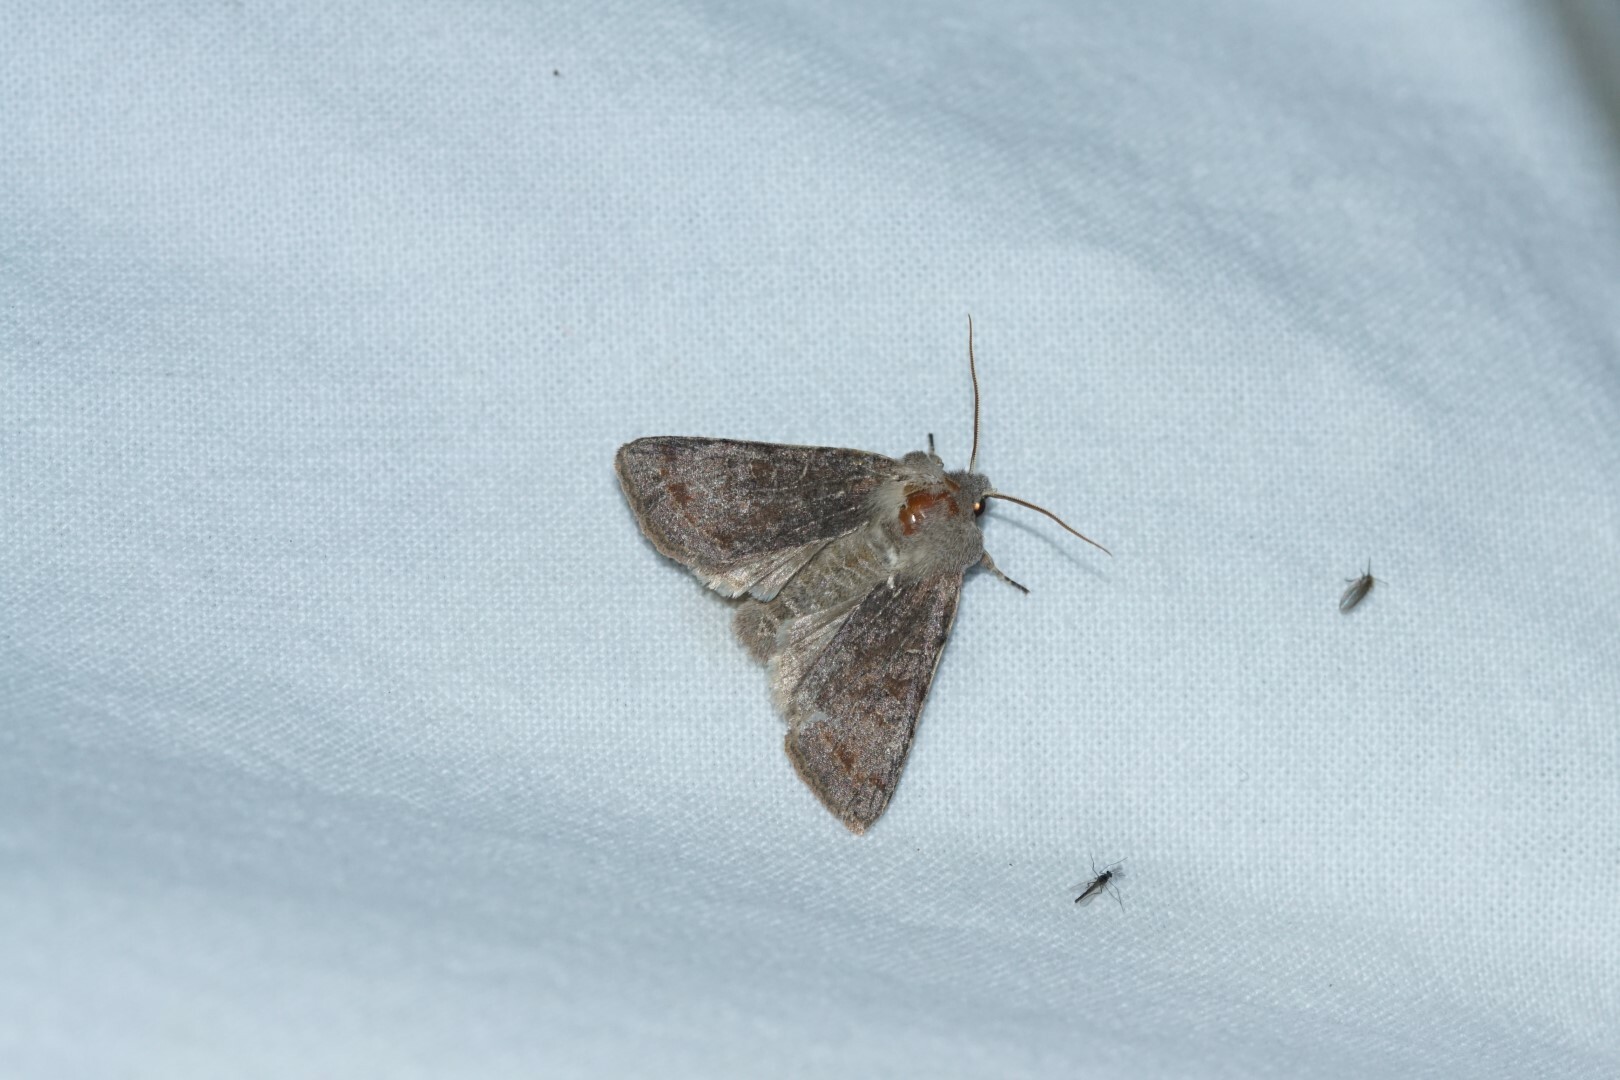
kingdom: Animalia
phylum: Arthropoda
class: Insecta
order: Lepidoptera
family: Noctuidae
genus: Orthosia
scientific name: Orthosia incerta
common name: Clouded drab
